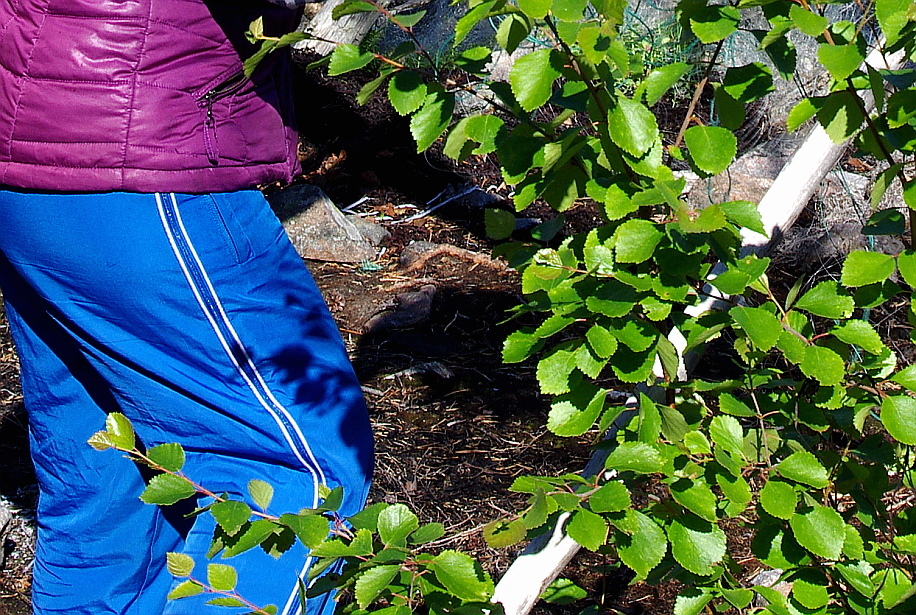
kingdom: Plantae
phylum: Tracheophyta
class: Magnoliopsida
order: Fagales
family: Betulaceae
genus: Betula
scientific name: Betula pubescens
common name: Downy birch
